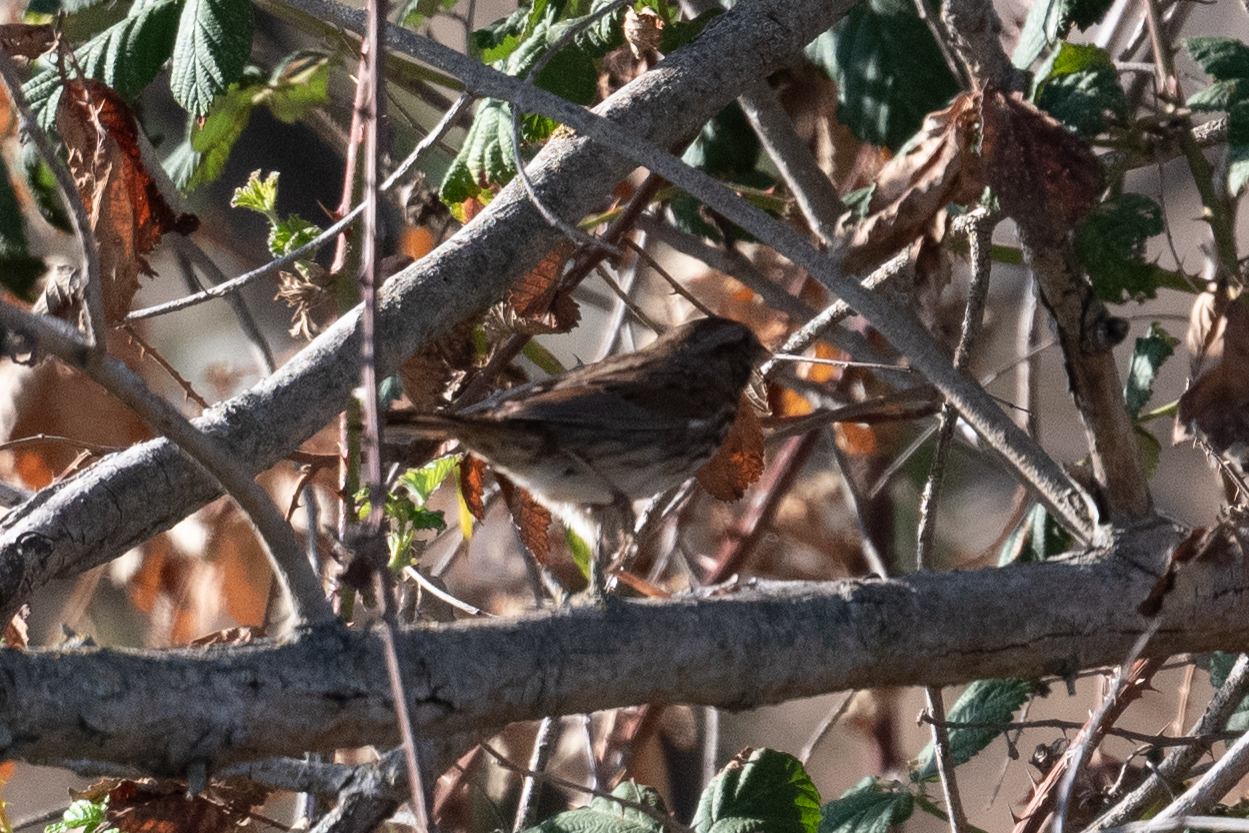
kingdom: Animalia
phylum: Chordata
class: Aves
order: Passeriformes
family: Passerellidae
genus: Melospiza
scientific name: Melospiza melodia
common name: Song sparrow
